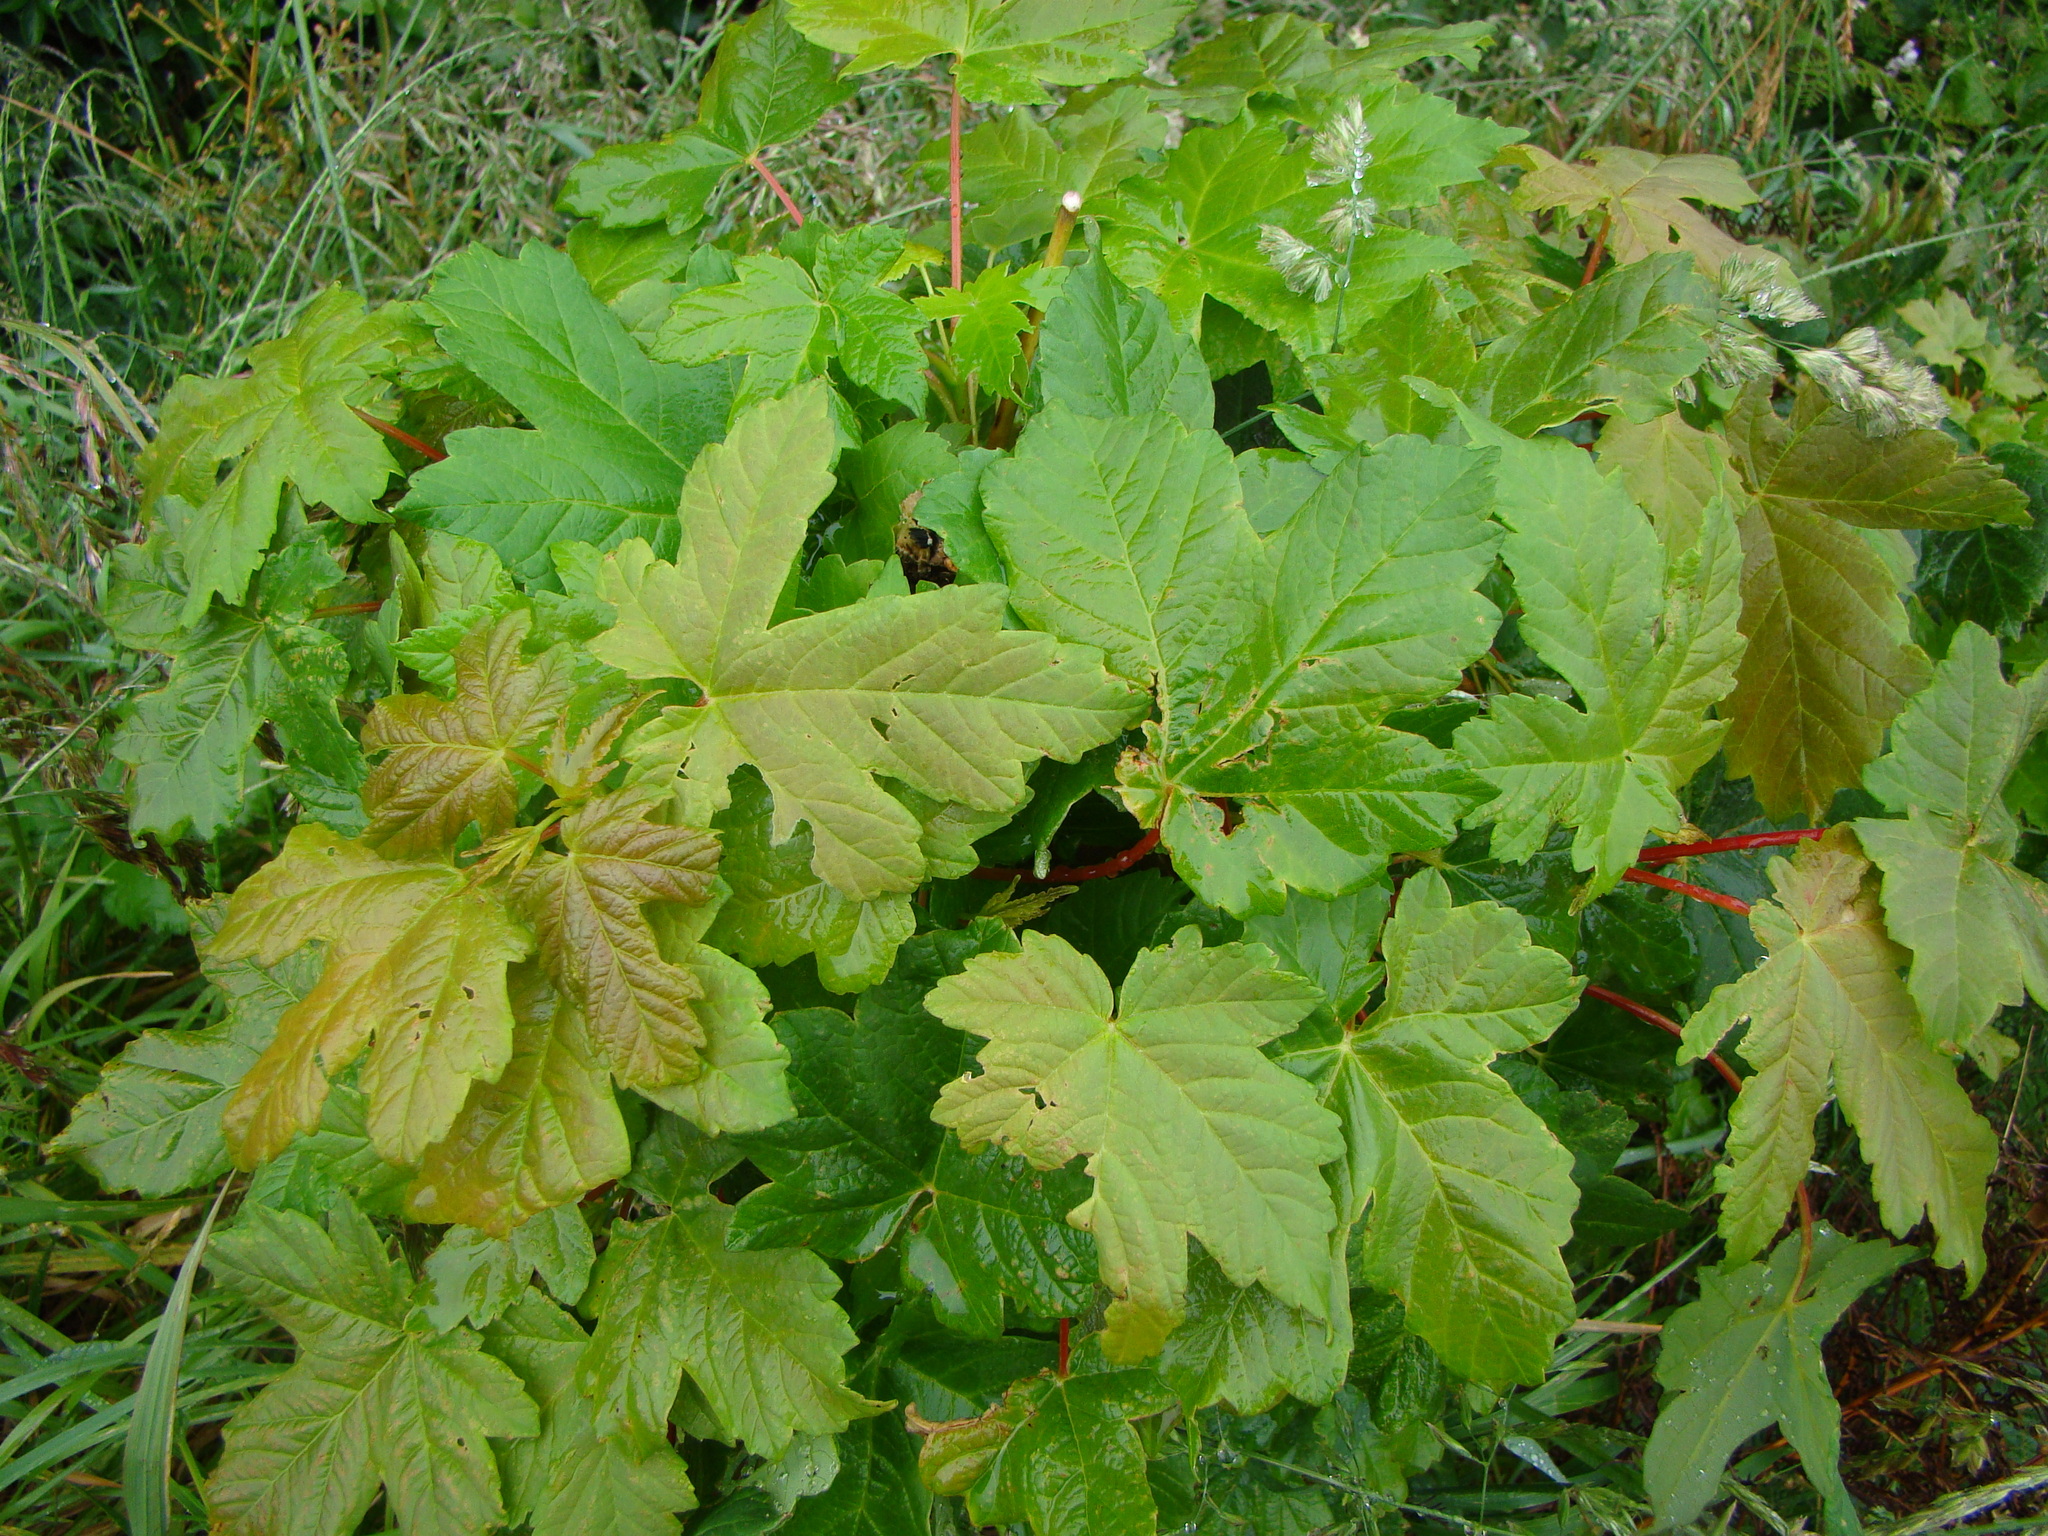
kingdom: Plantae
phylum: Tracheophyta
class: Magnoliopsida
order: Sapindales
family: Sapindaceae
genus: Acer
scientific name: Acer pseudoplatanus
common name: Sycamore
